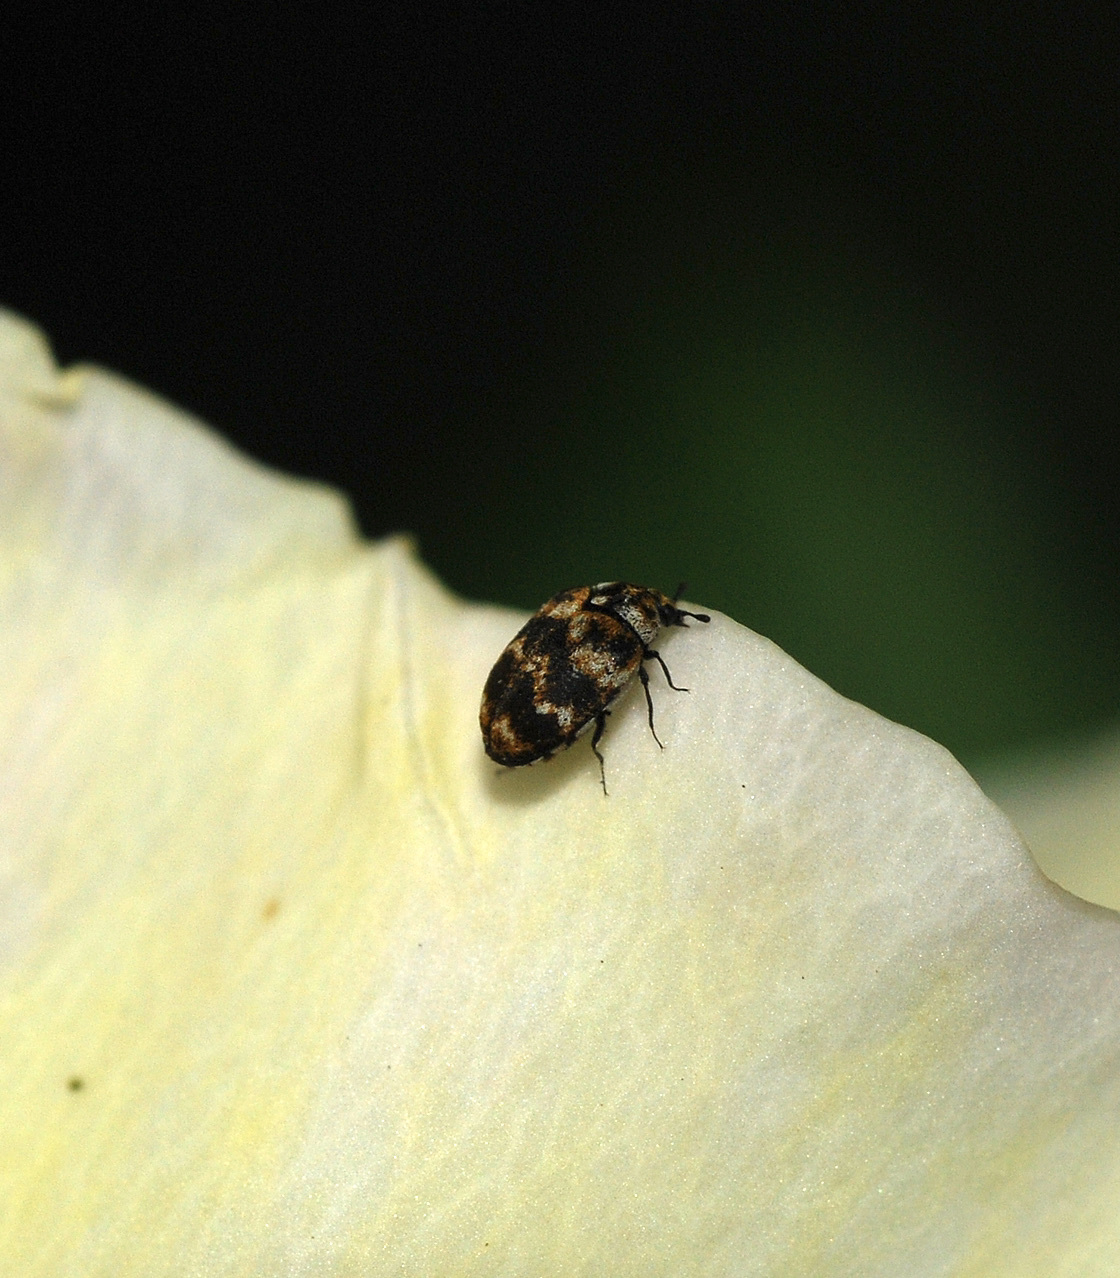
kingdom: Animalia
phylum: Arthropoda
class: Insecta
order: Coleoptera
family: Dermestidae
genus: Anthrenus
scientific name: Anthrenus verbasci
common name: Varied carpet beetle
